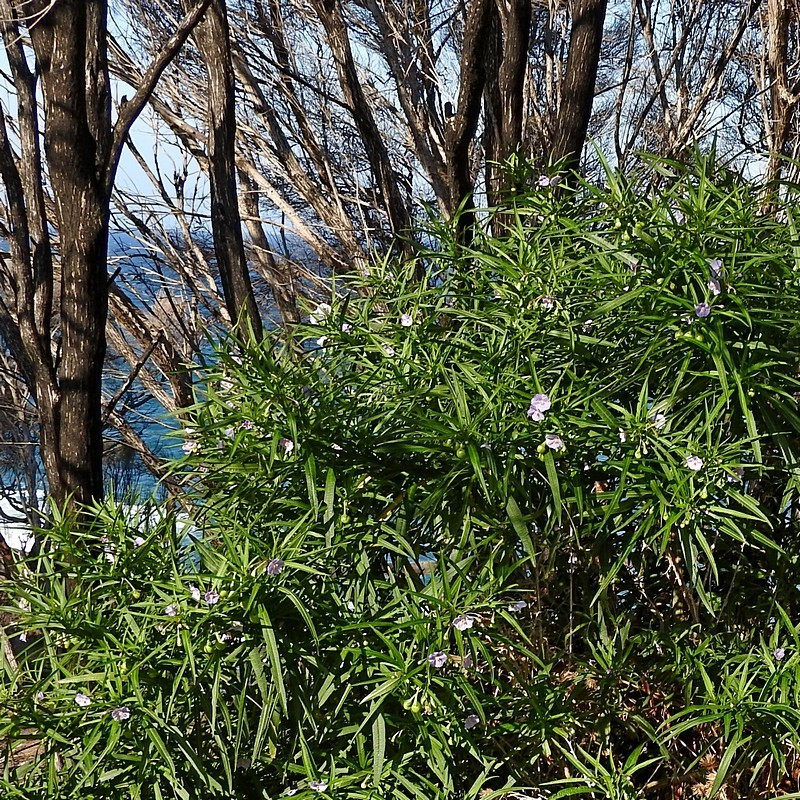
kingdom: Plantae
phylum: Tracheophyta
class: Magnoliopsida
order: Solanales
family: Solanaceae
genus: Solanum
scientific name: Solanum vescum
